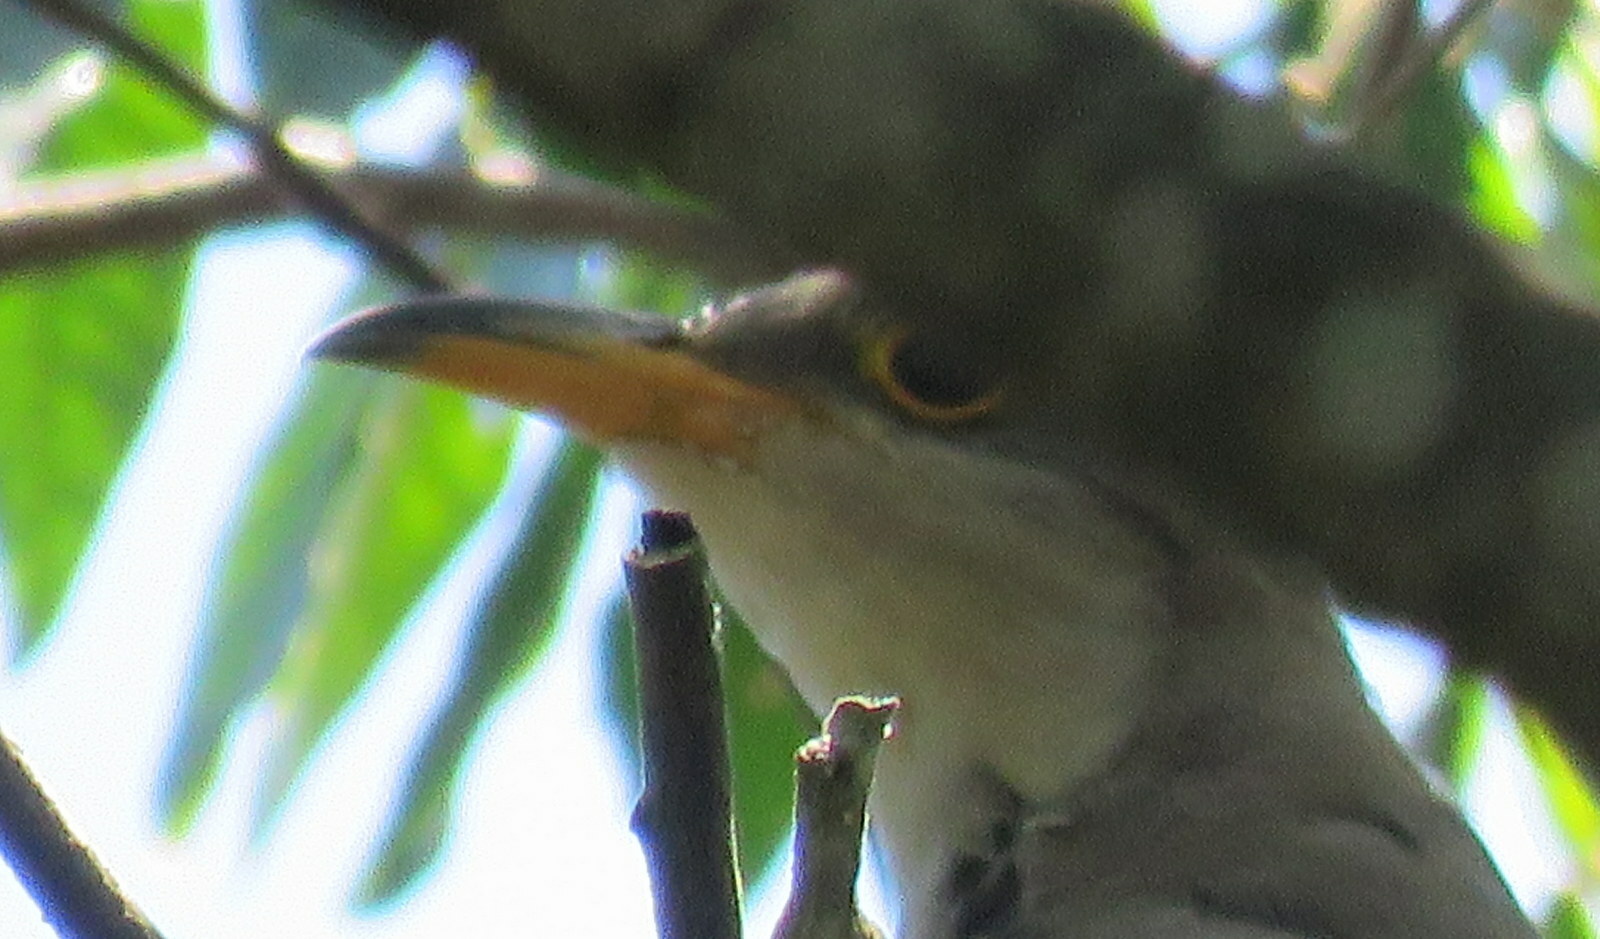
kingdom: Animalia
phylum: Chordata
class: Aves
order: Cuculiformes
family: Cuculidae
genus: Coccyzus
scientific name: Coccyzus americanus
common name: Yellow-billed cuckoo
